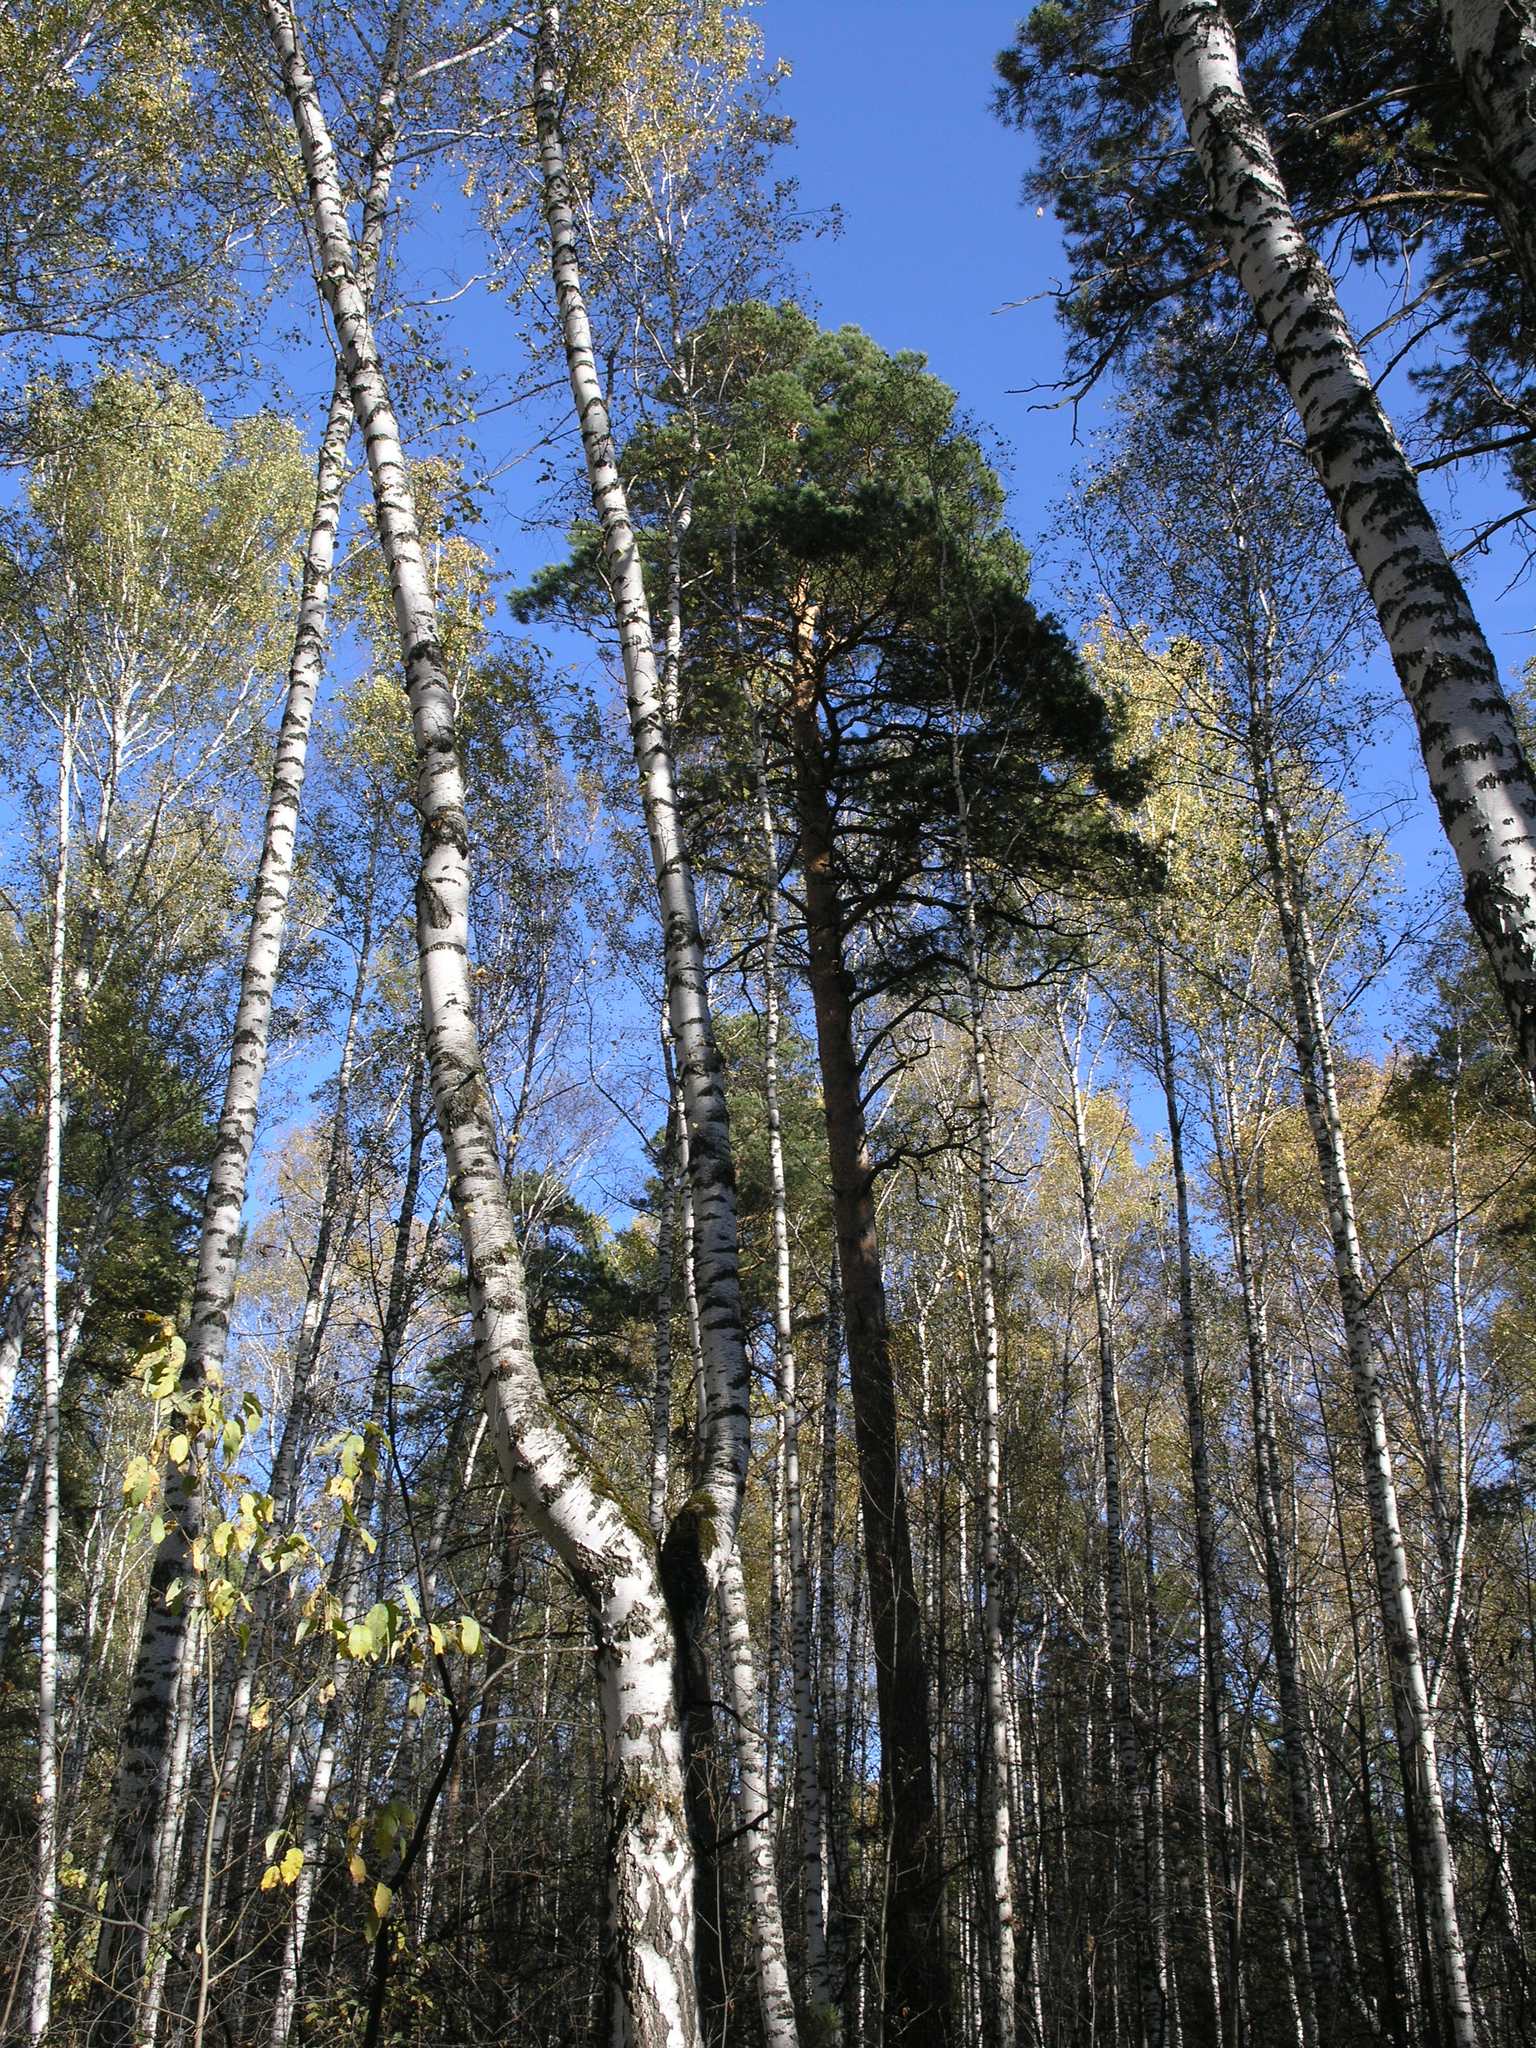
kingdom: Plantae
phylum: Tracheophyta
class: Pinopsida
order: Pinales
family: Pinaceae
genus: Pinus
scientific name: Pinus sylvestris
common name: Scots pine
